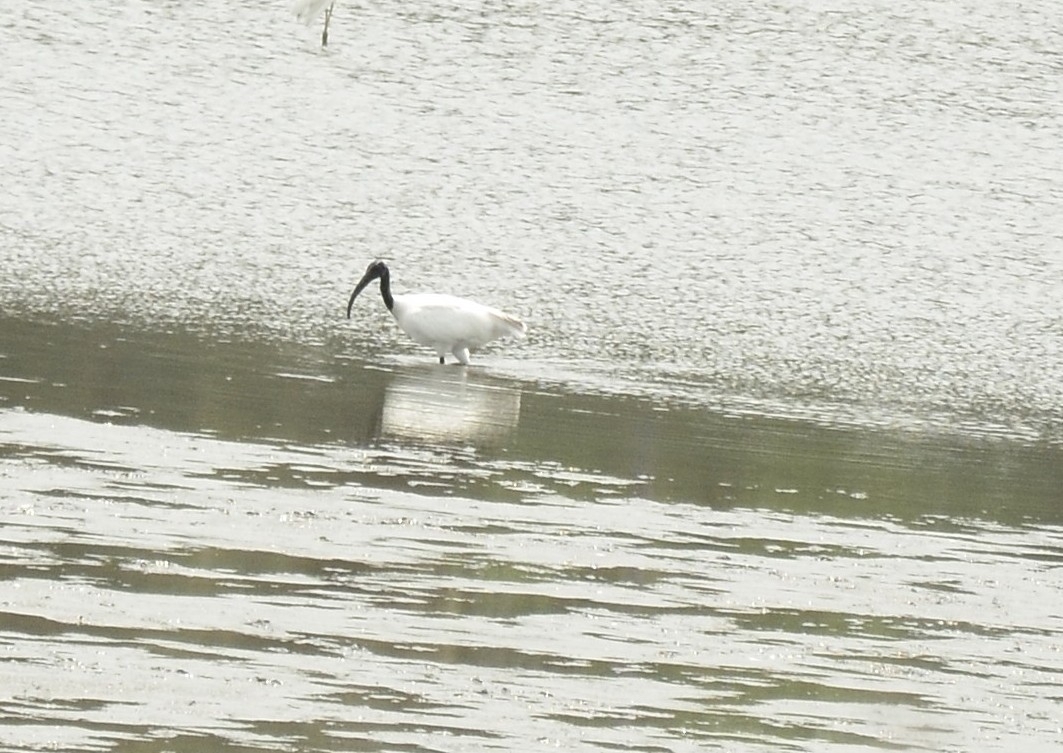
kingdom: Animalia
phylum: Chordata
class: Aves
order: Pelecaniformes
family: Threskiornithidae
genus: Threskiornis
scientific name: Threskiornis melanocephalus
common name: Black-headed ibis
